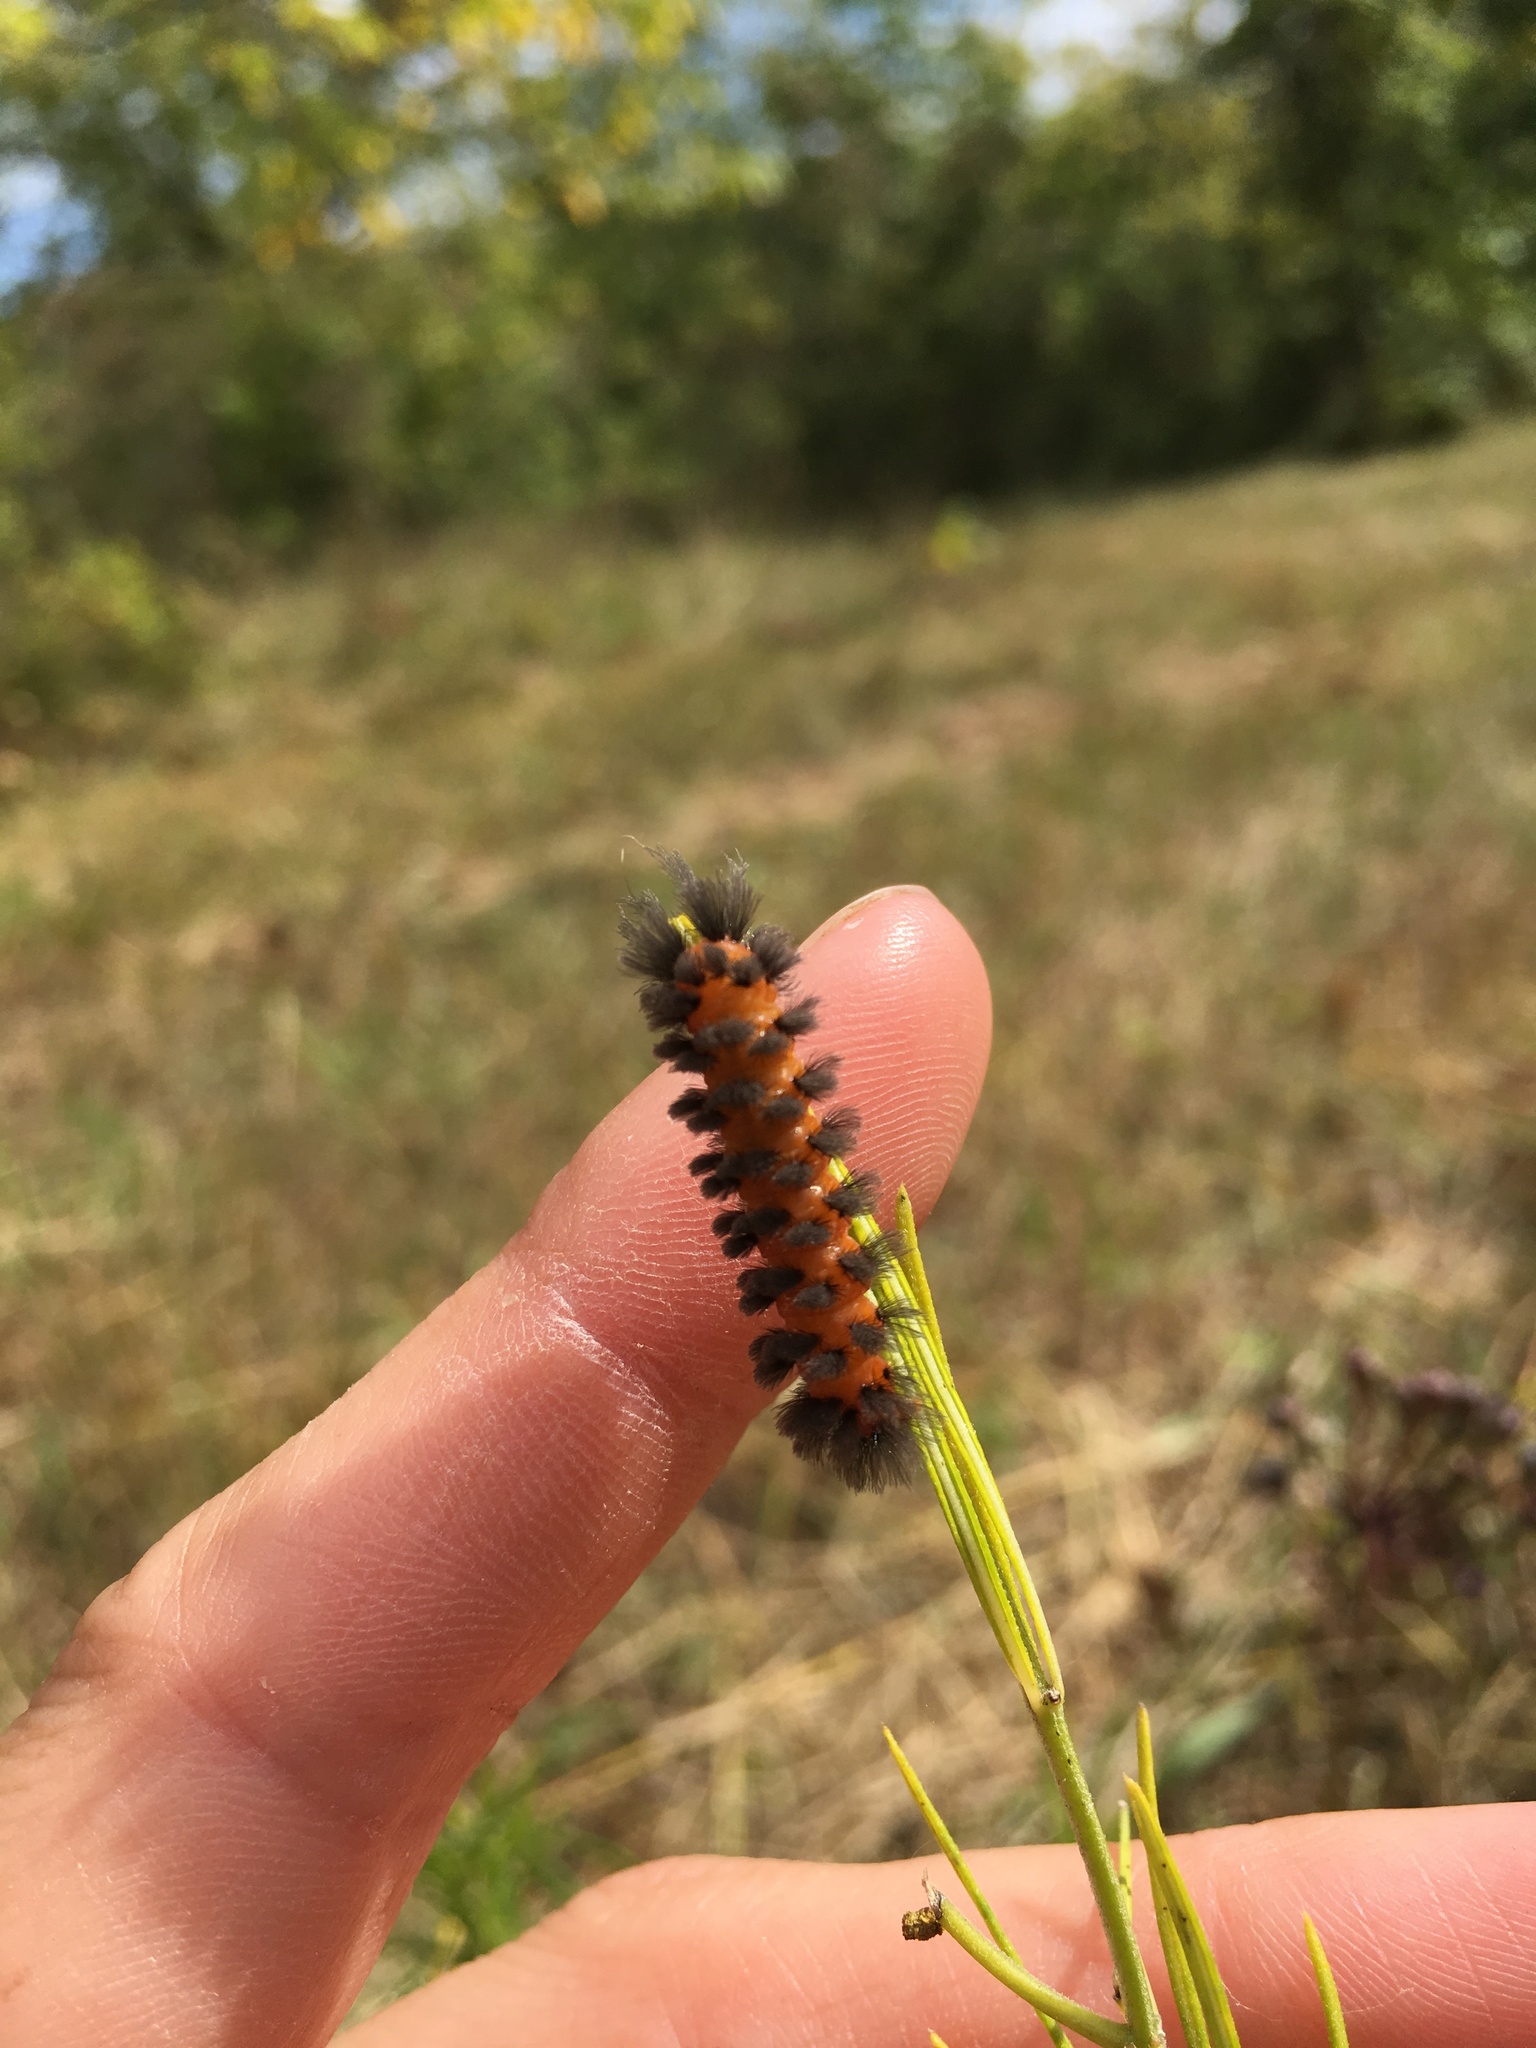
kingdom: Animalia
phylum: Arthropoda
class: Insecta
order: Lepidoptera
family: Erebidae
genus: Cycnia
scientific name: Cycnia collaris
